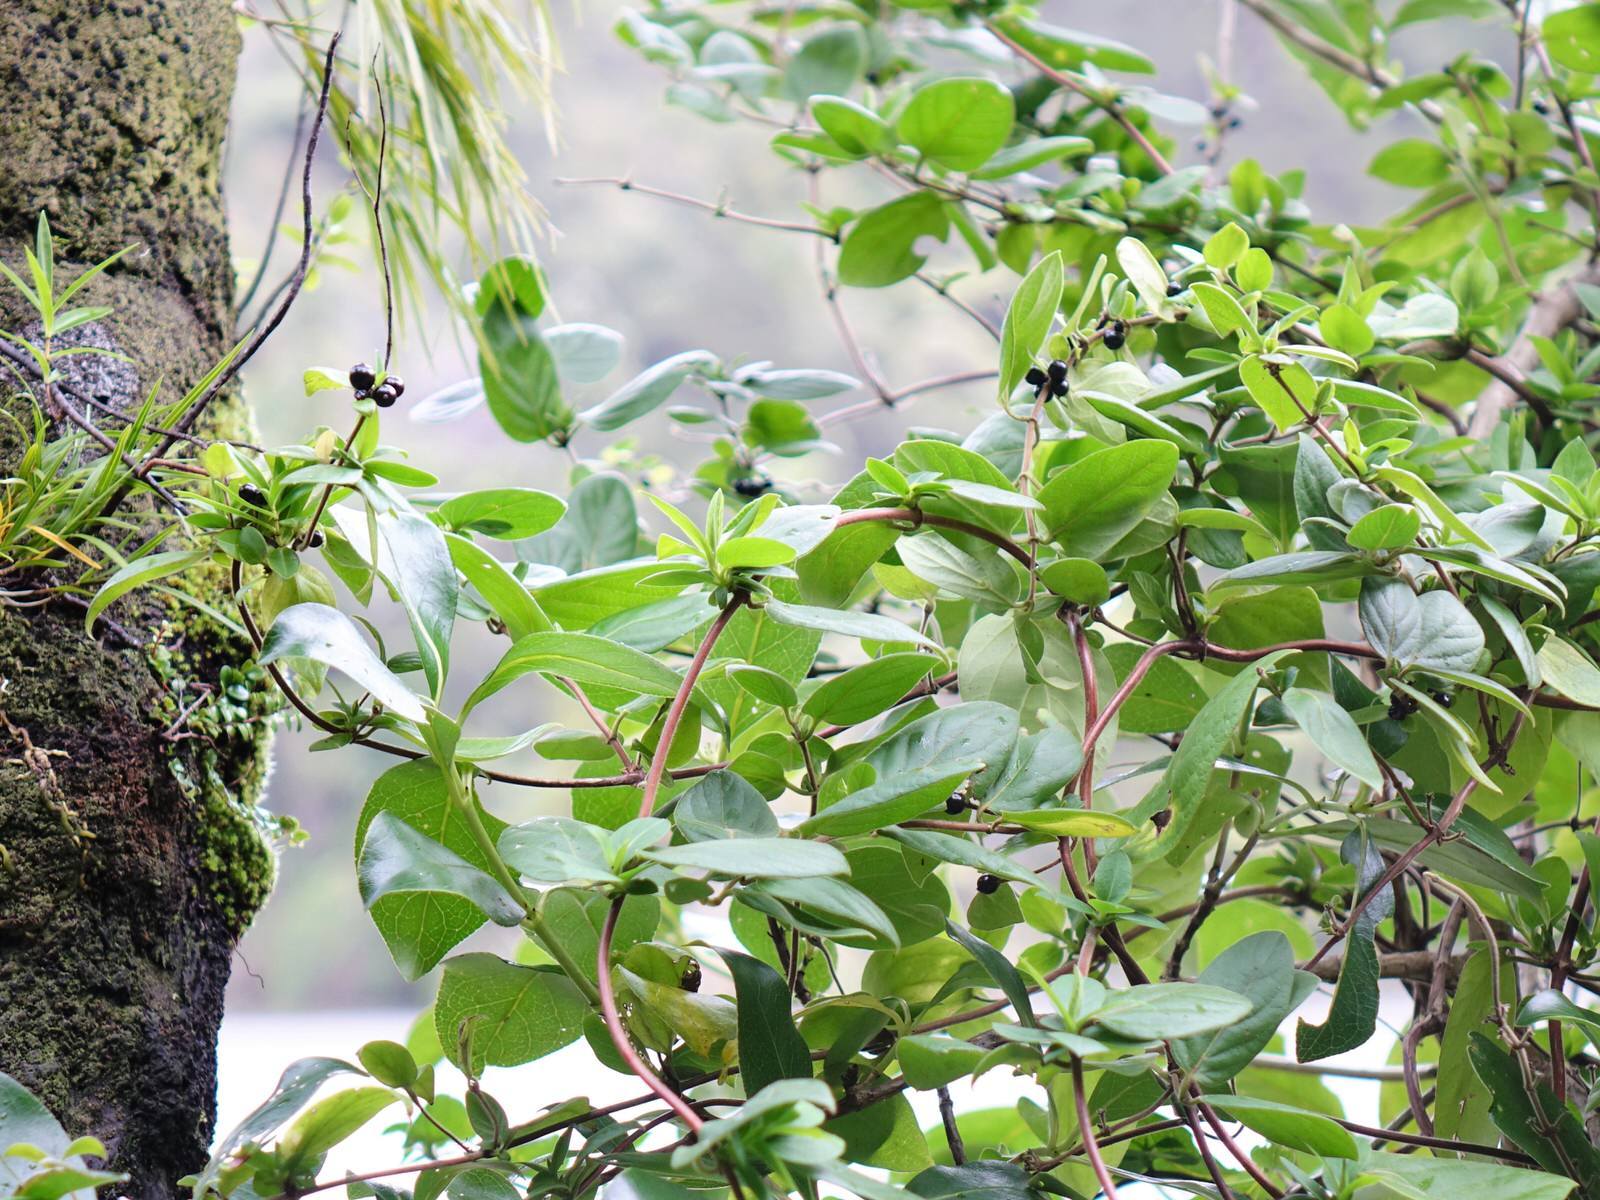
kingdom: Plantae
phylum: Tracheophyta
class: Magnoliopsida
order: Dipsacales
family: Caprifoliaceae
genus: Lonicera
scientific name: Lonicera japonica
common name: Japanese honeysuckle
